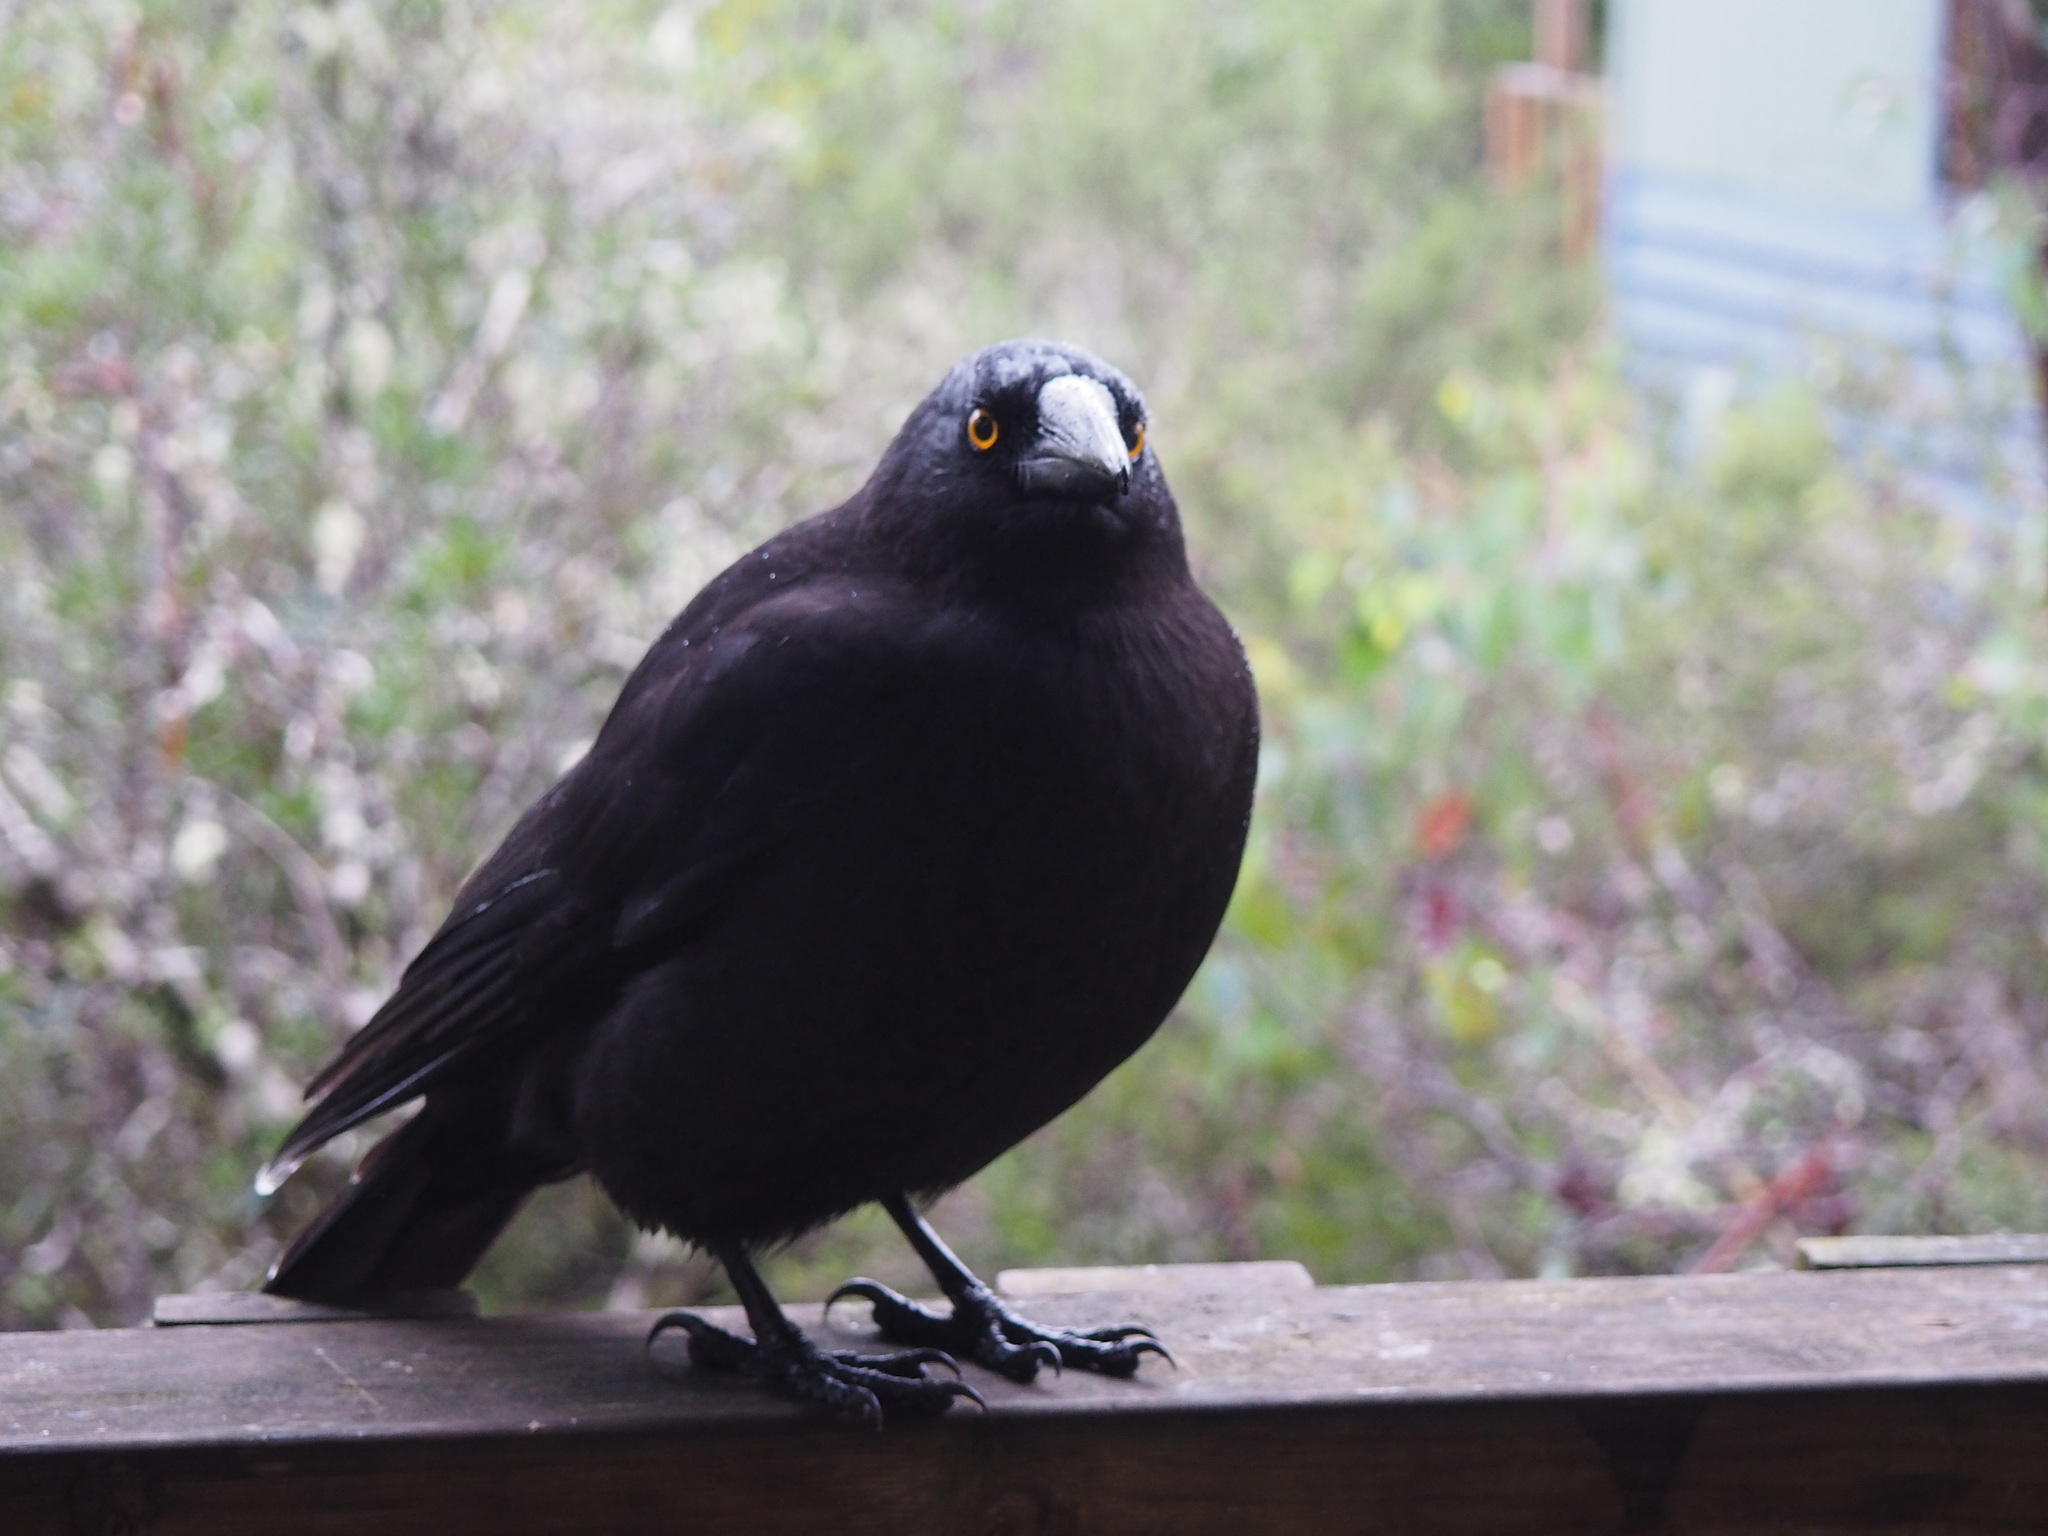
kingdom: Animalia
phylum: Chordata
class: Aves
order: Passeriformes
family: Cracticidae
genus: Strepera
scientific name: Strepera fuliginosa
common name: Black currawong
